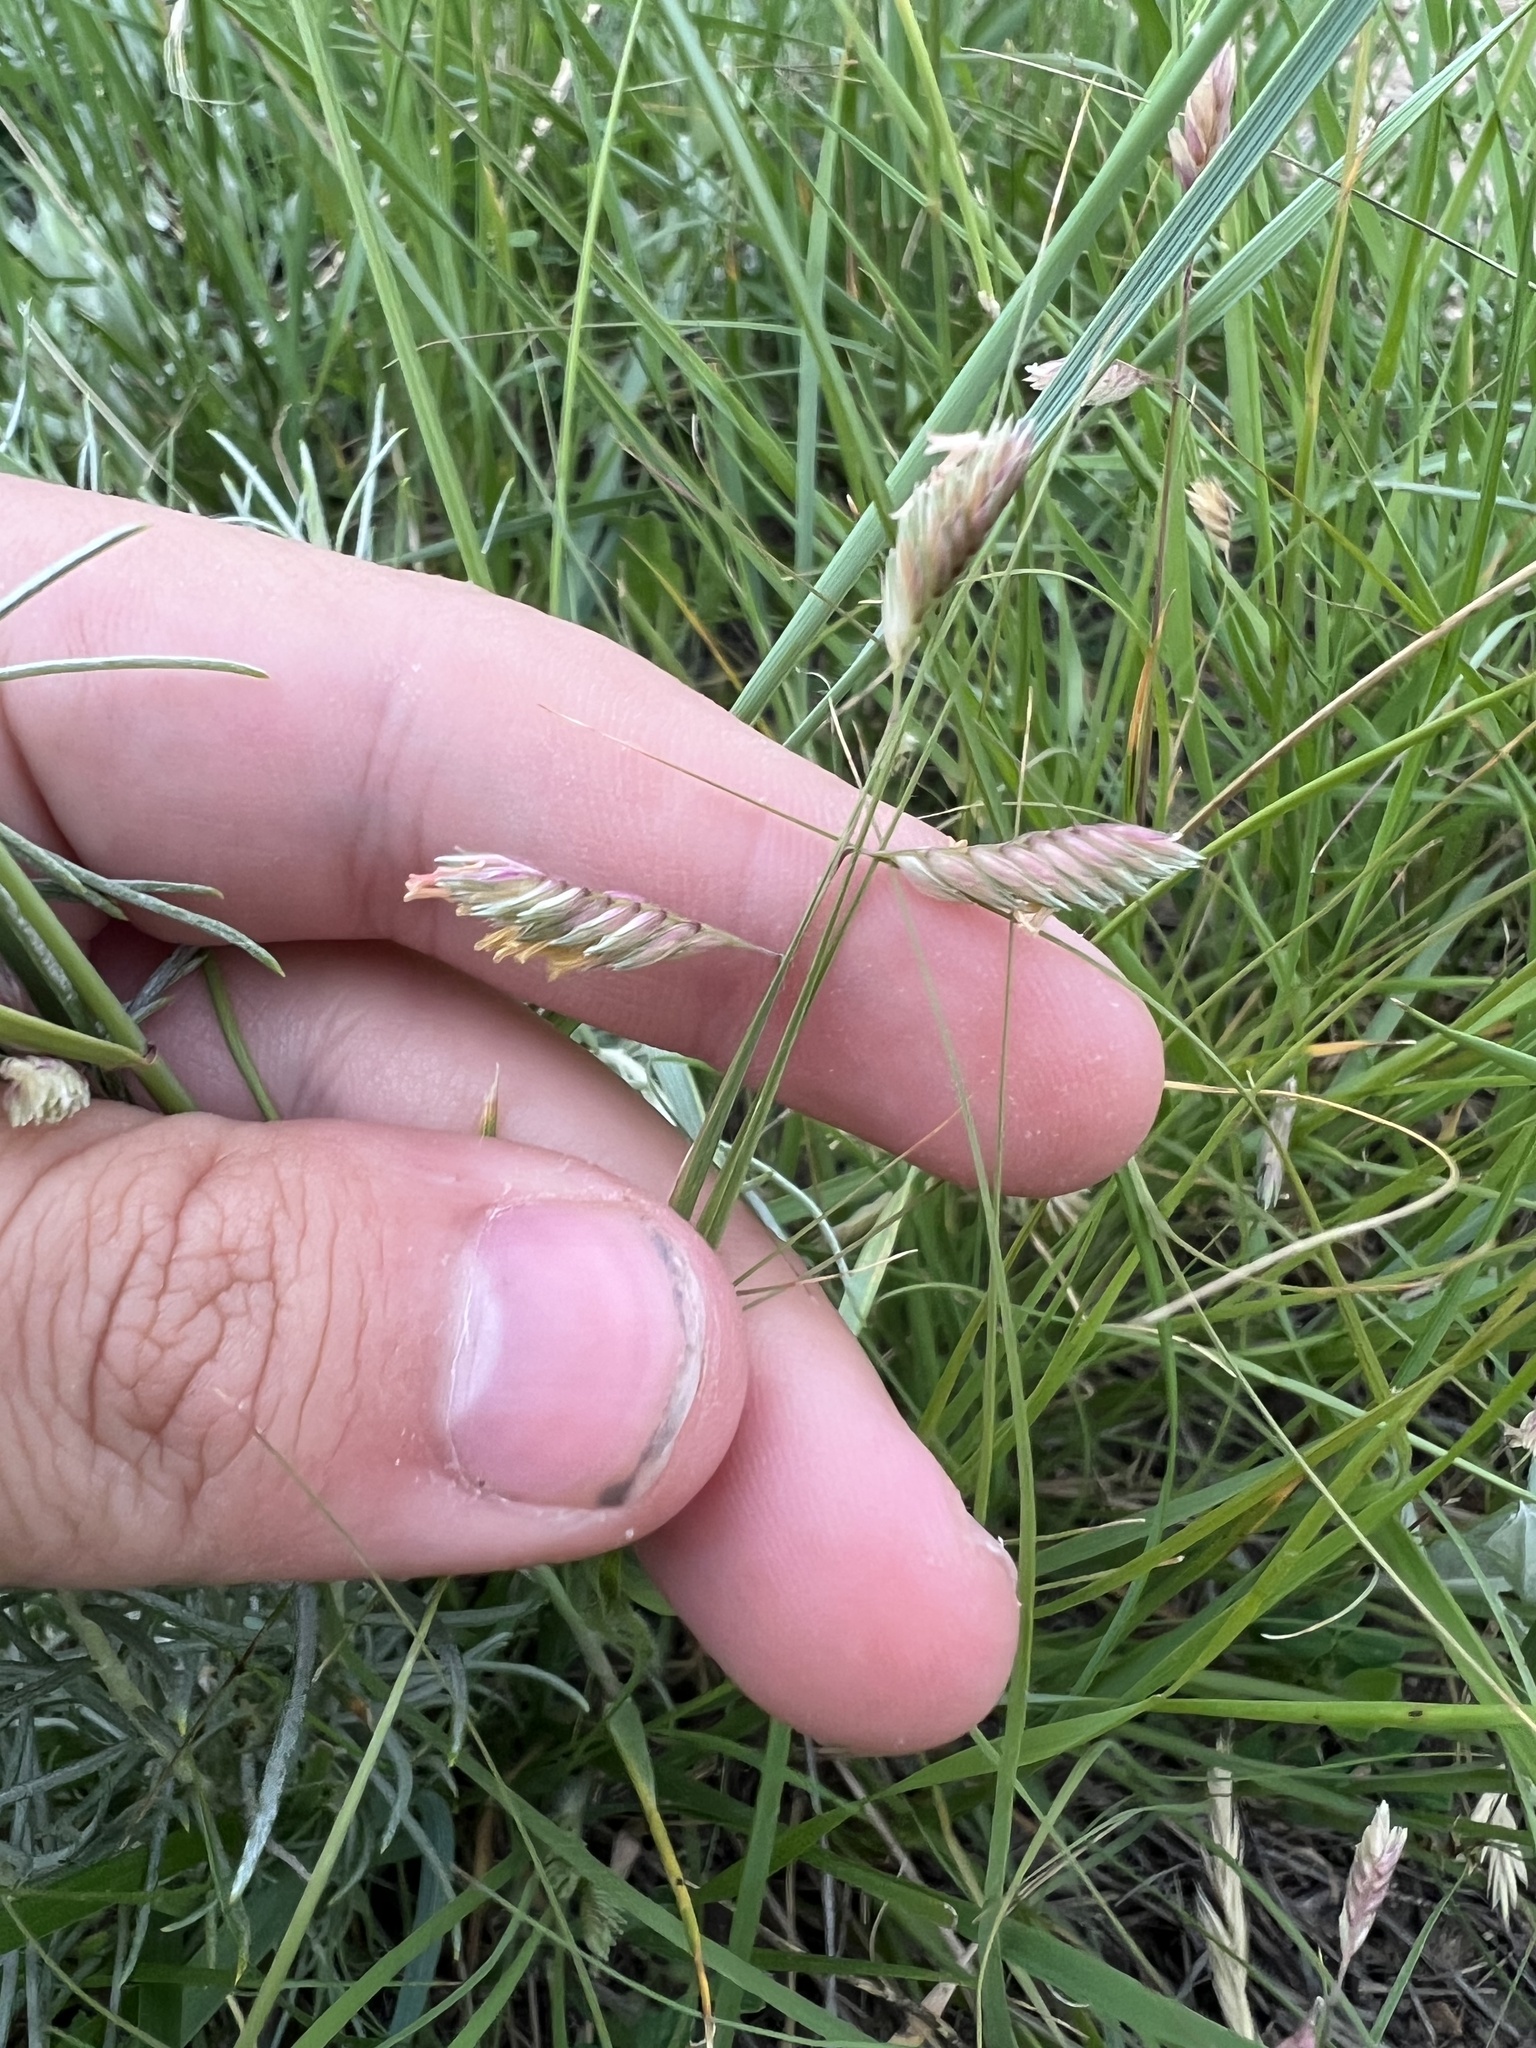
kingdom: Plantae
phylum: Tracheophyta
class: Liliopsida
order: Poales
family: Poaceae
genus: Bouteloua
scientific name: Bouteloua dactyloides
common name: Buffalo grass
